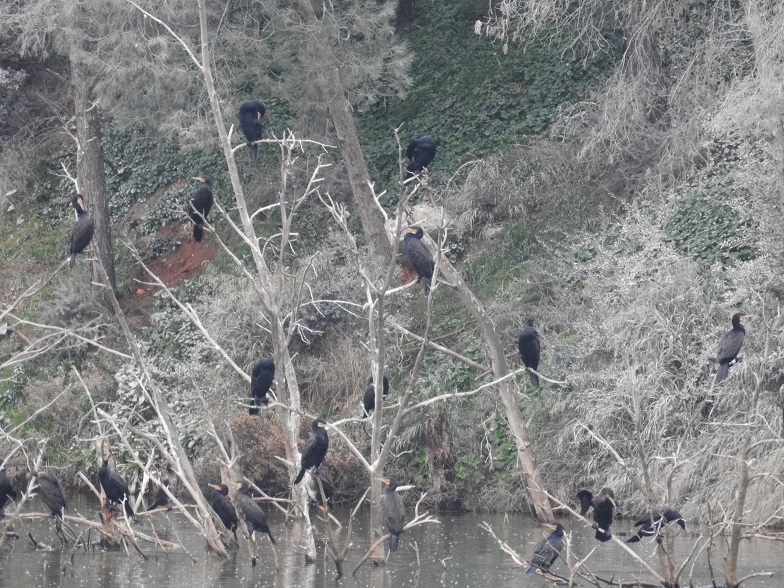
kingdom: Animalia
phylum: Chordata
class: Aves
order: Suliformes
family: Phalacrocoracidae
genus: Phalacrocorax
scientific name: Phalacrocorax carbo
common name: Great cormorant
